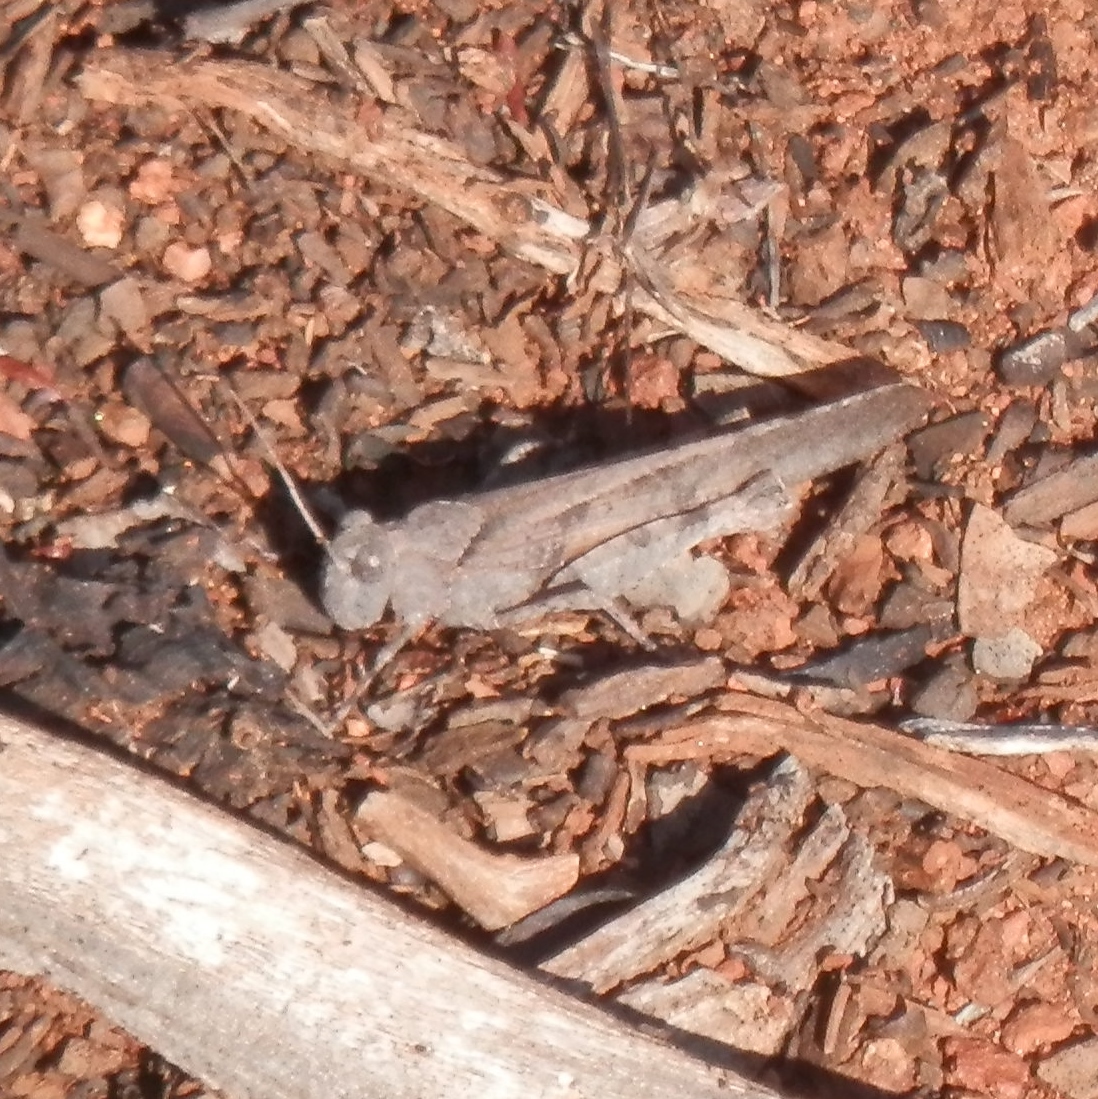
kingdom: Animalia
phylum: Arthropoda
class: Insecta
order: Orthoptera
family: Acrididae
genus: Trimerotropis
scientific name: Trimerotropis thalassica
